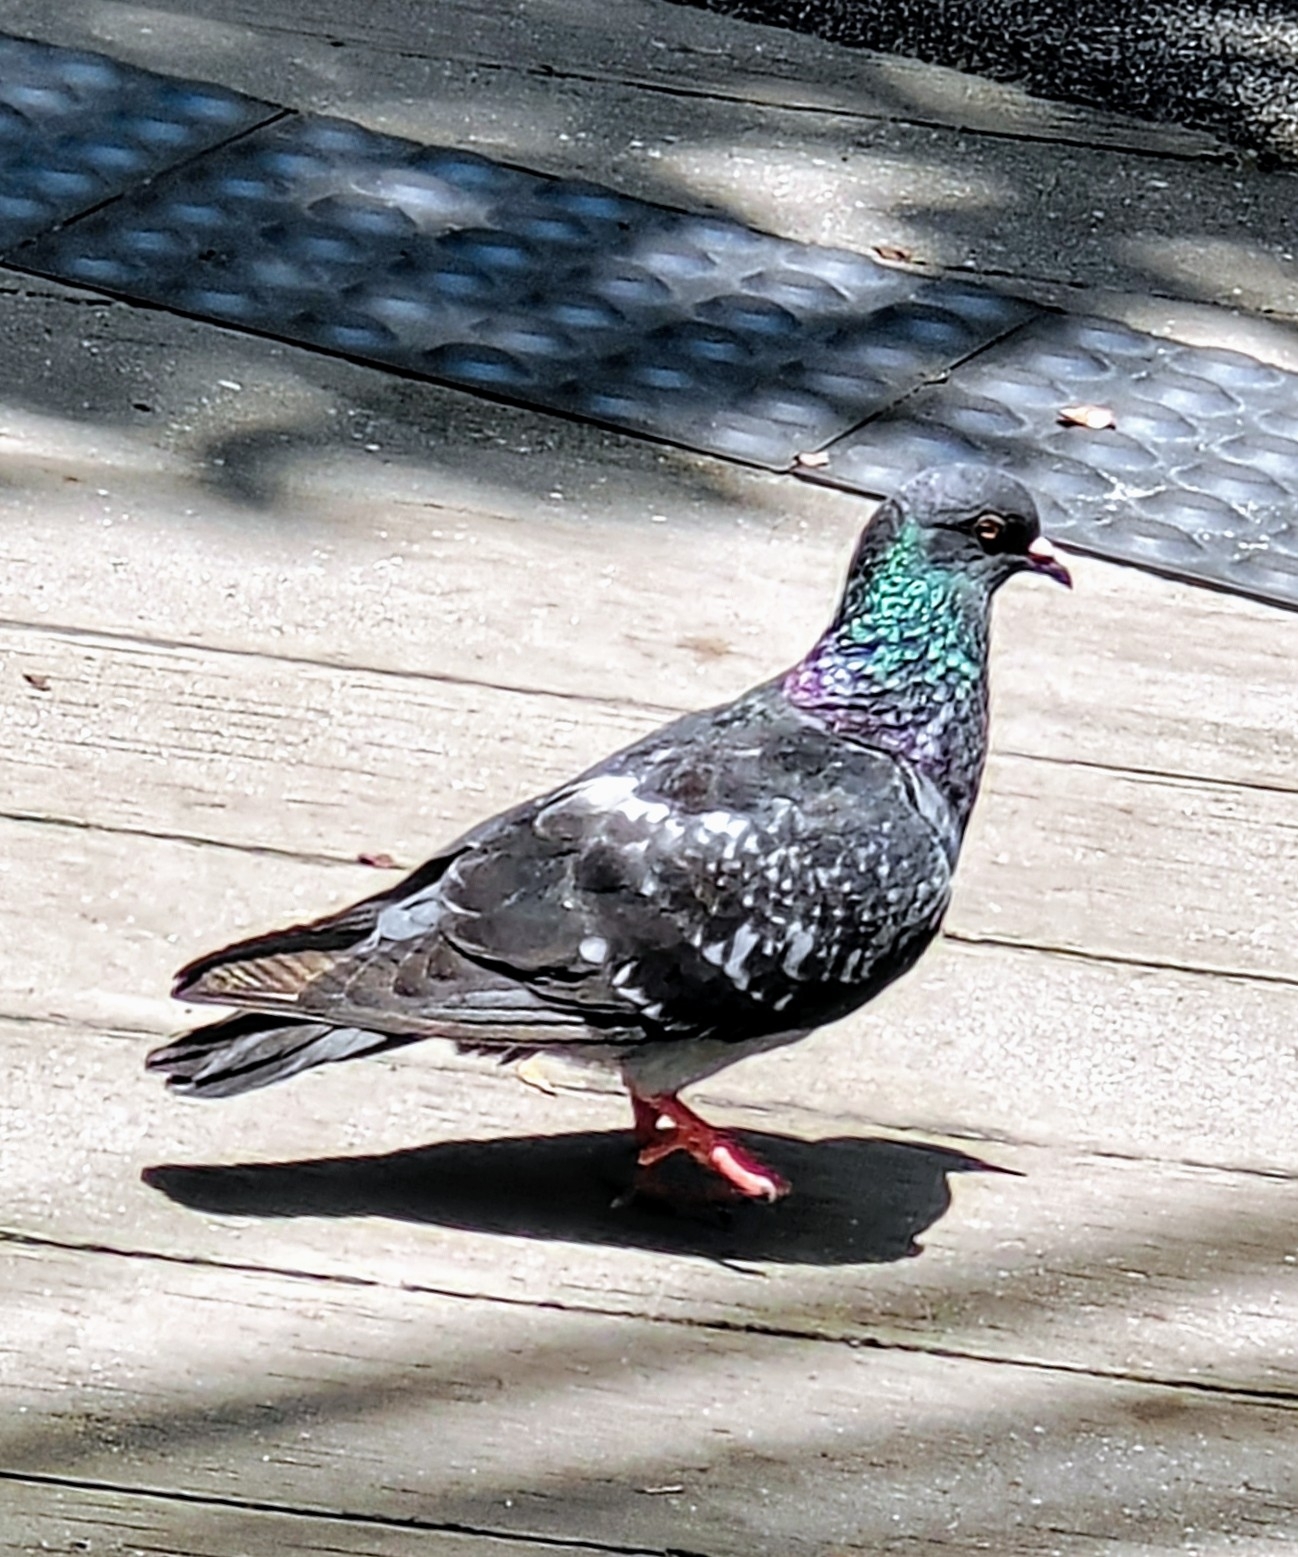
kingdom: Animalia
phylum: Chordata
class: Aves
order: Columbiformes
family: Columbidae
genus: Columba
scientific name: Columba livia
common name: Rock pigeon
